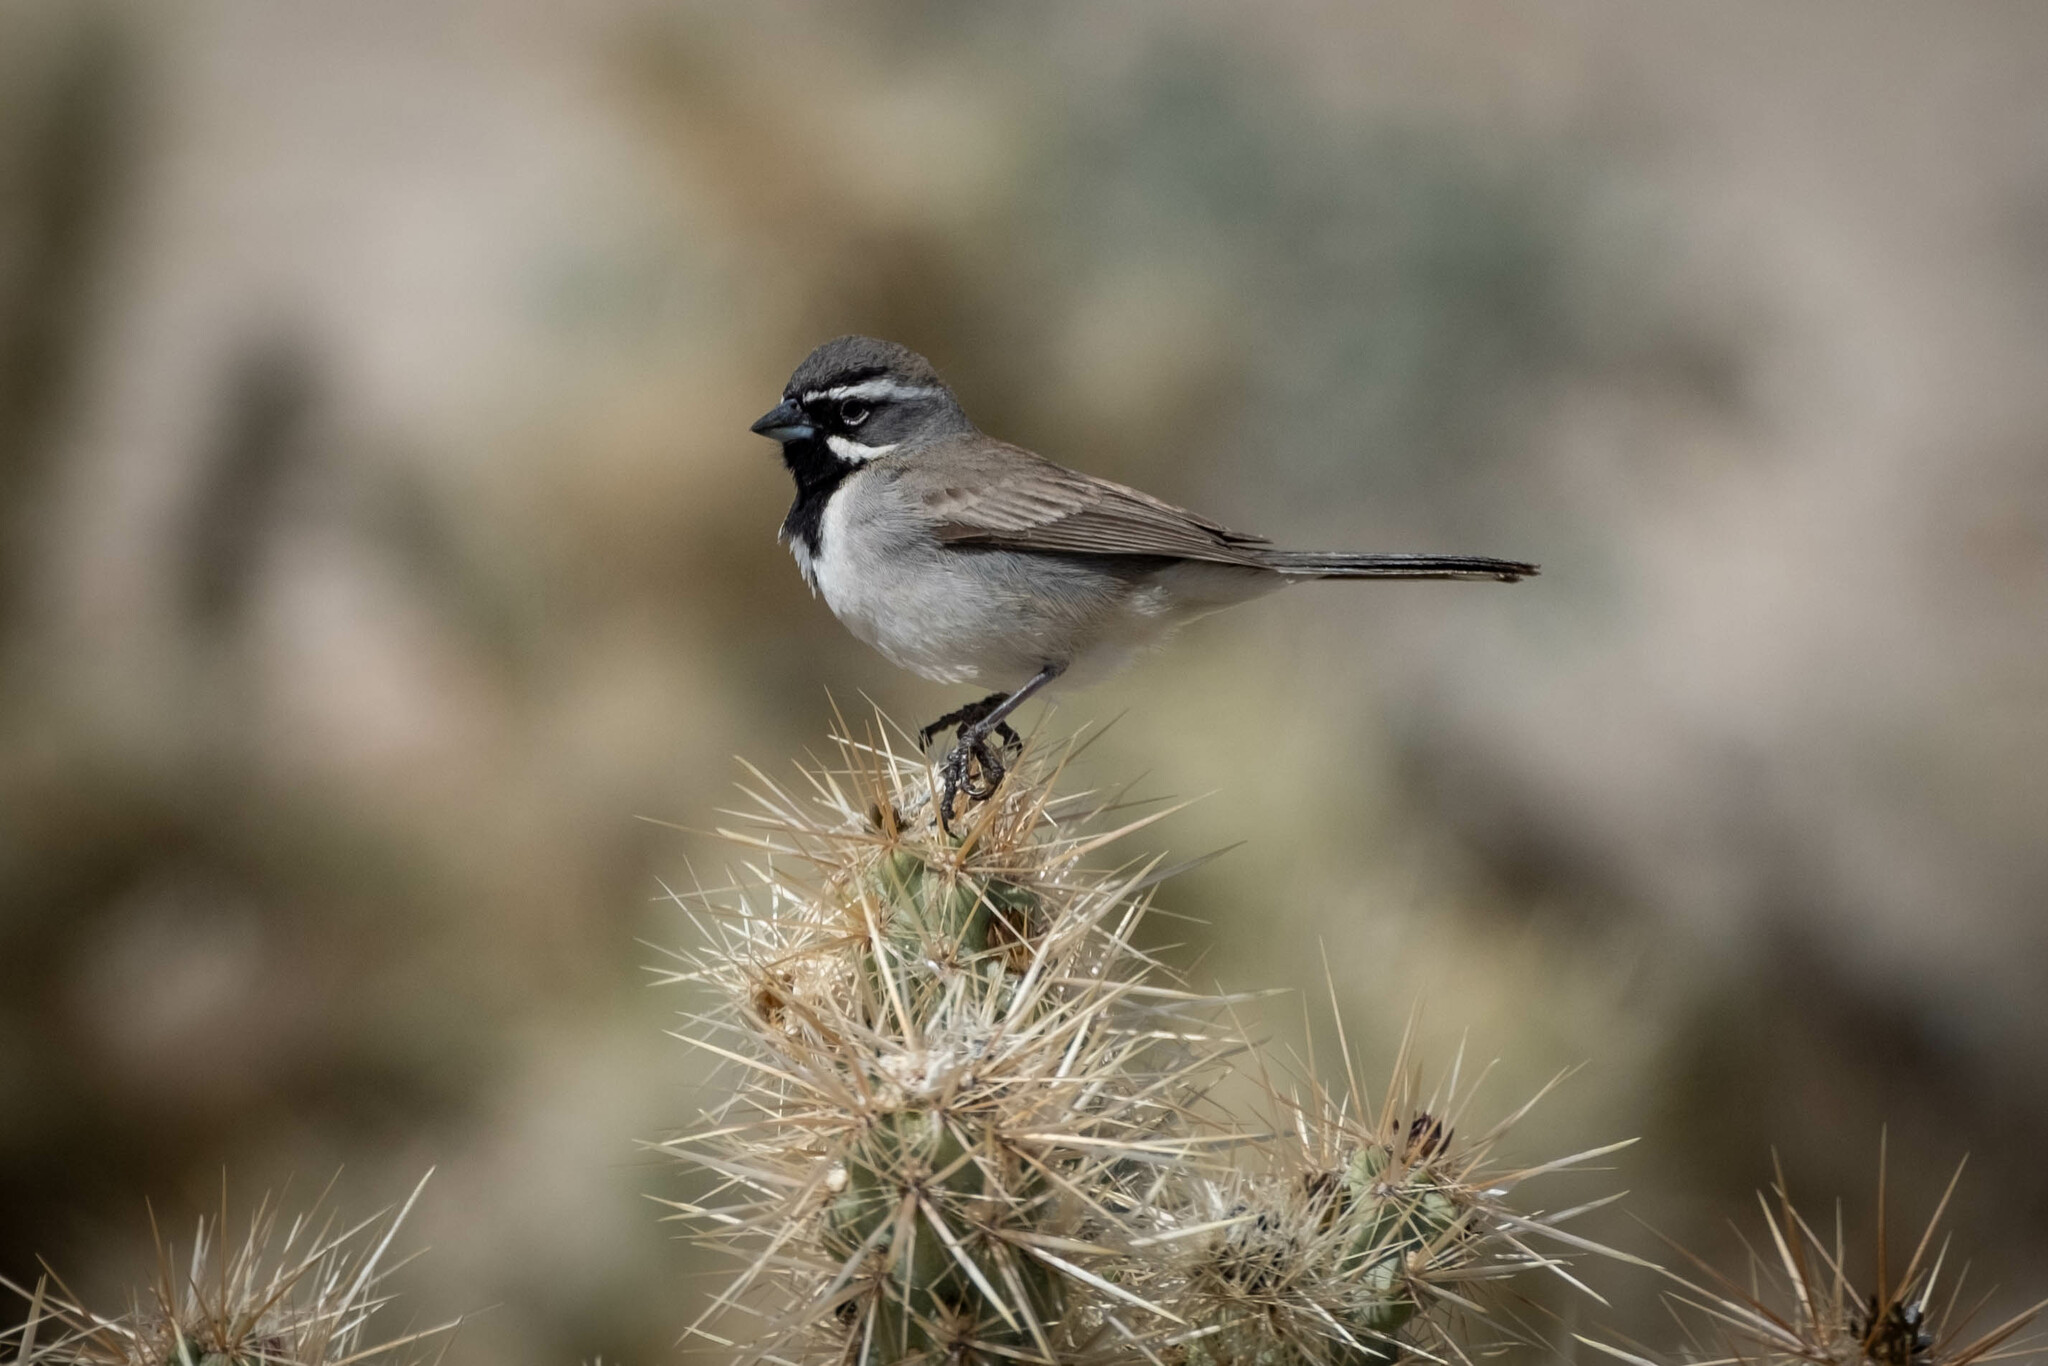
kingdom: Animalia
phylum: Chordata
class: Aves
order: Passeriformes
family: Passerellidae
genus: Amphispiza
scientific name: Amphispiza bilineata
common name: Black-throated sparrow
